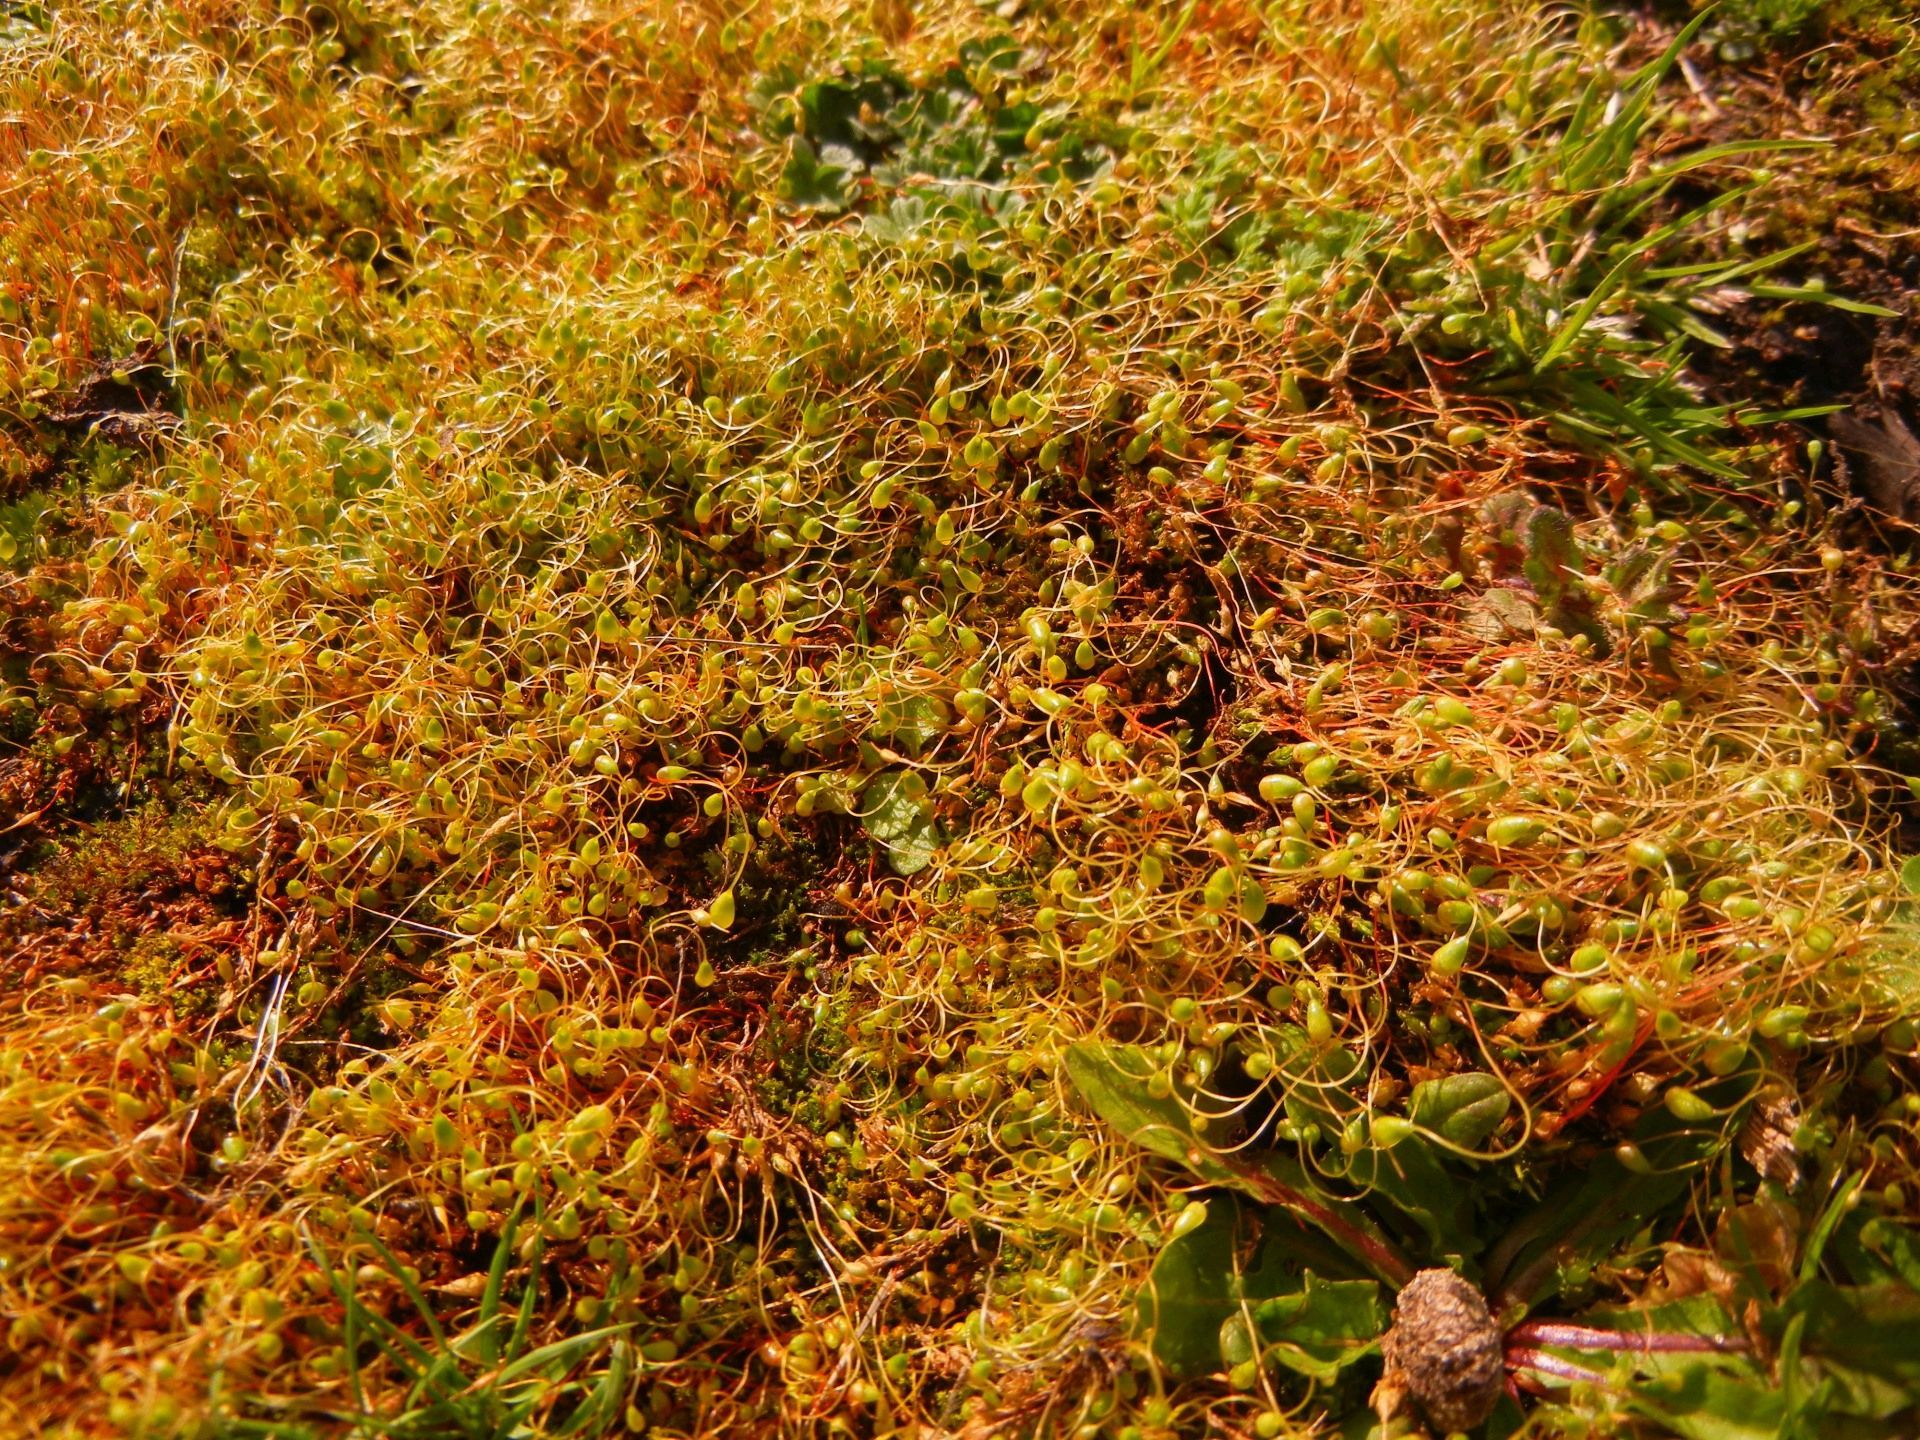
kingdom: Plantae
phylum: Bryophyta
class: Bryopsida
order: Funariales
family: Funariaceae
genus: Funaria
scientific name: Funaria hygrometrica
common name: Common cord moss
